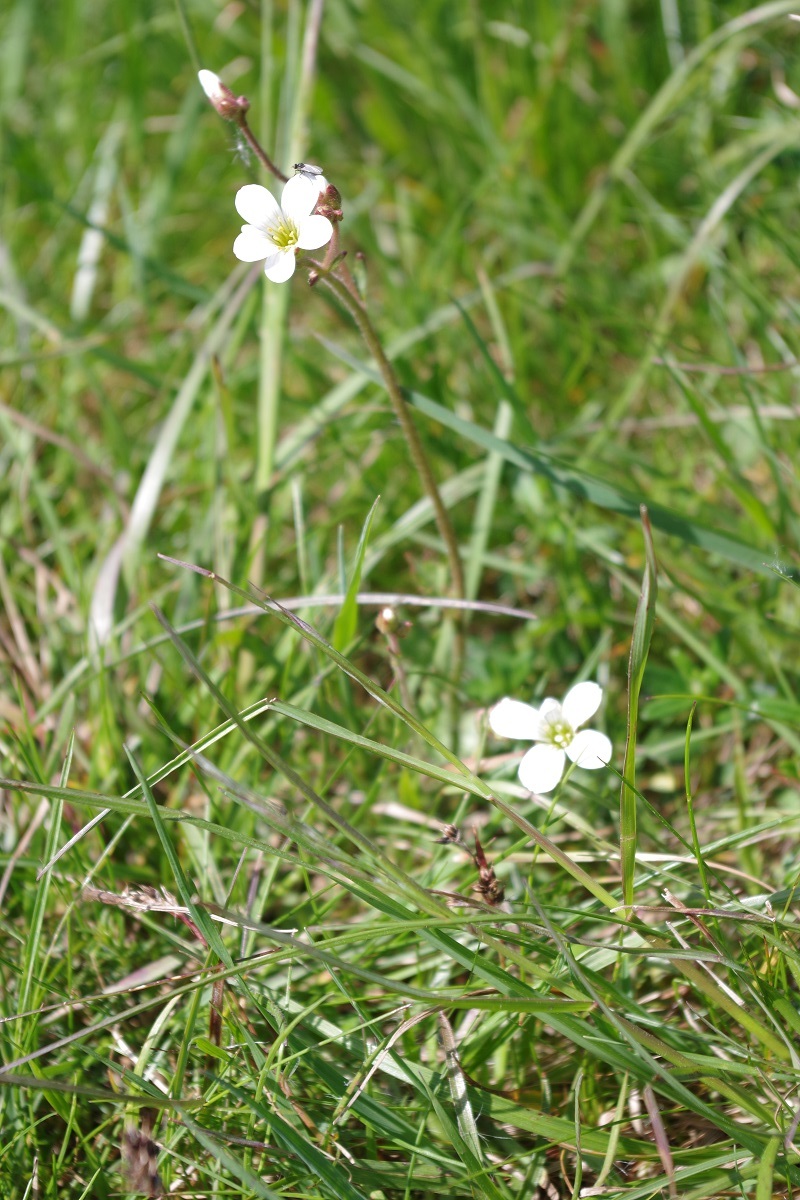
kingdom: Plantae
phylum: Tracheophyta
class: Magnoliopsida
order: Saxifragales
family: Saxifragaceae
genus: Saxifraga
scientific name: Saxifraga granulata
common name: Meadow saxifrage
